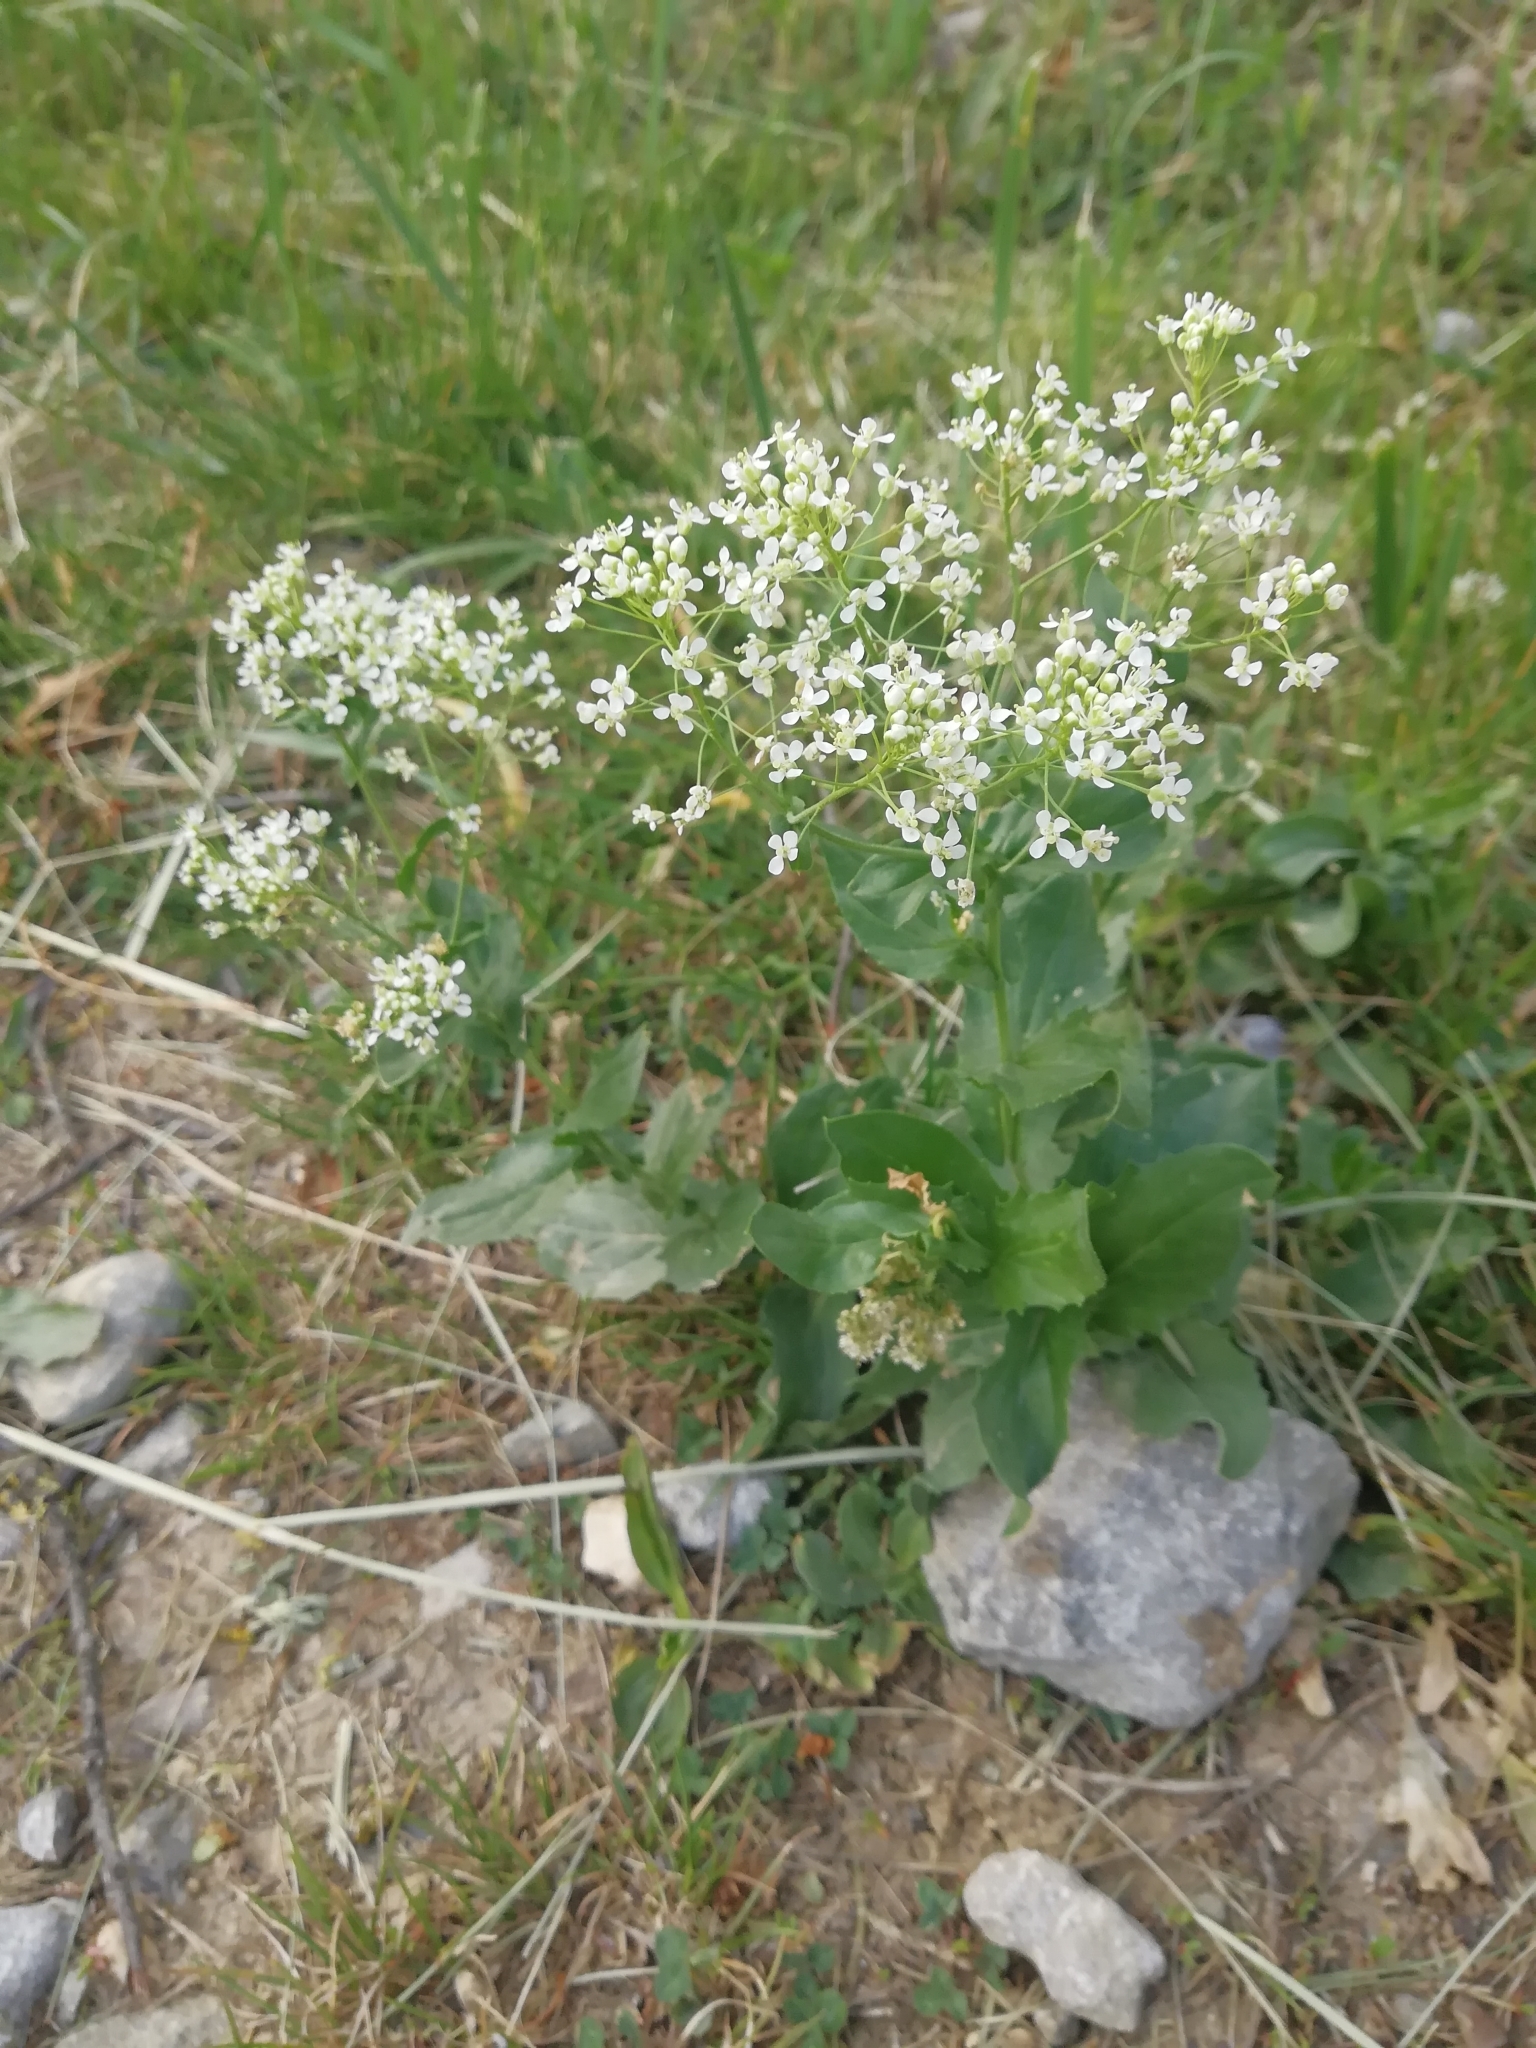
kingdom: Plantae
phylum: Tracheophyta
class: Magnoliopsida
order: Brassicales
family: Brassicaceae
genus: Lepidium
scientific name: Lepidium draba
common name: Hoary cress
